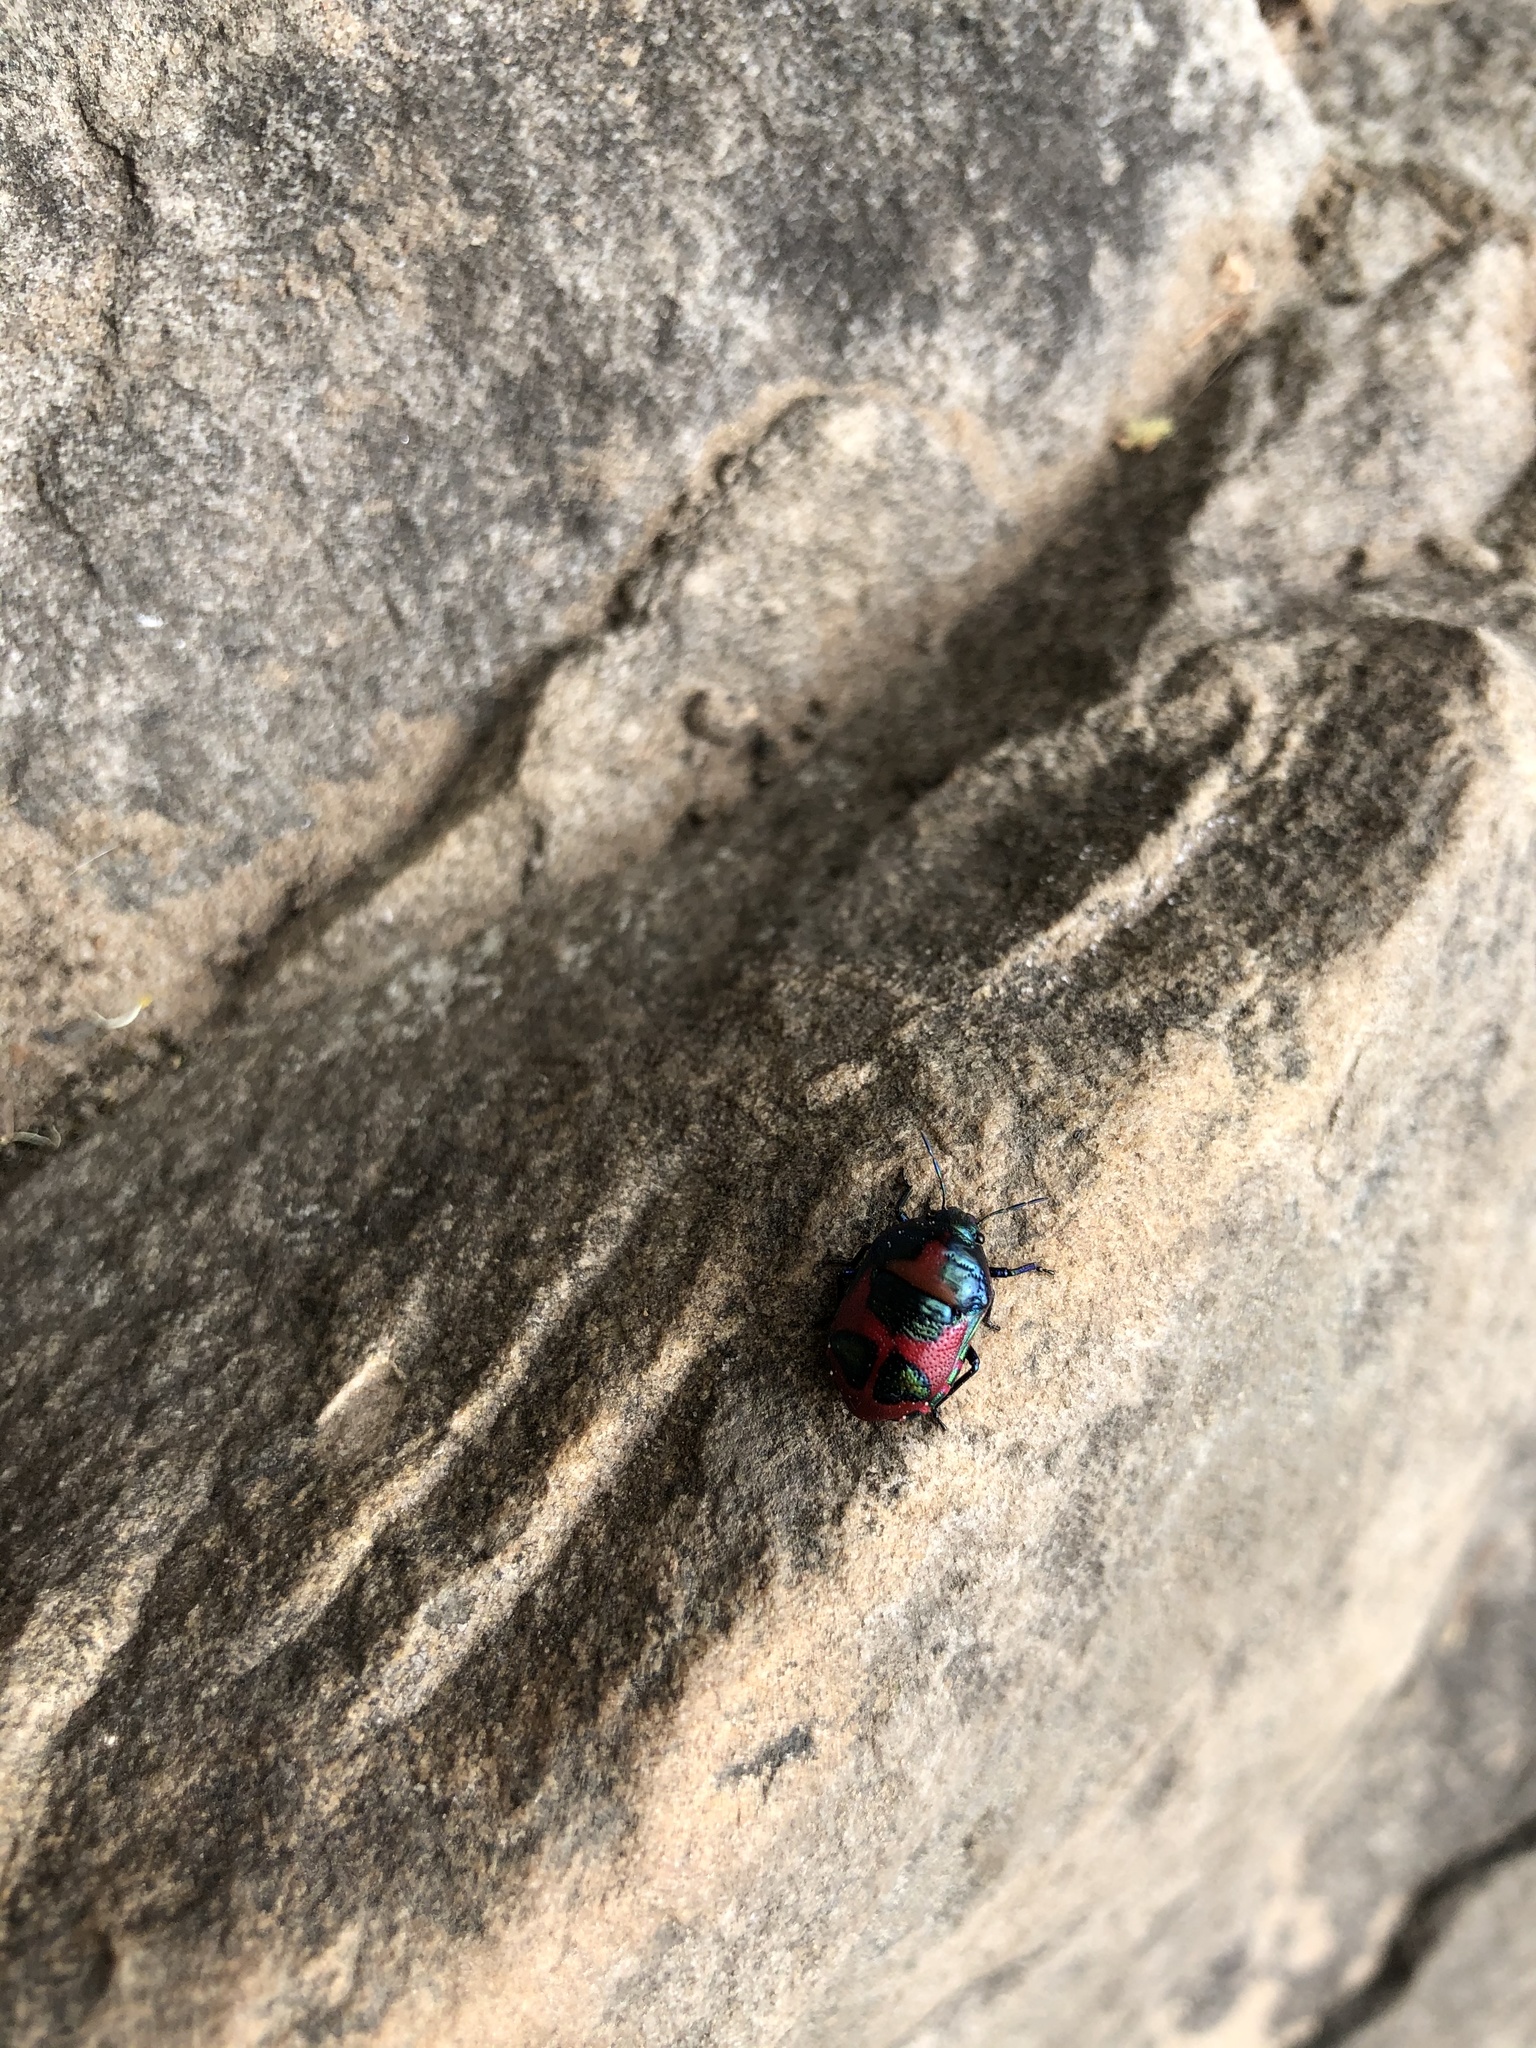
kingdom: Animalia
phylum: Arthropoda
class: Insecta
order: Hemiptera
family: Scutelleridae
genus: Choerocoris
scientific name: Choerocoris paganus
